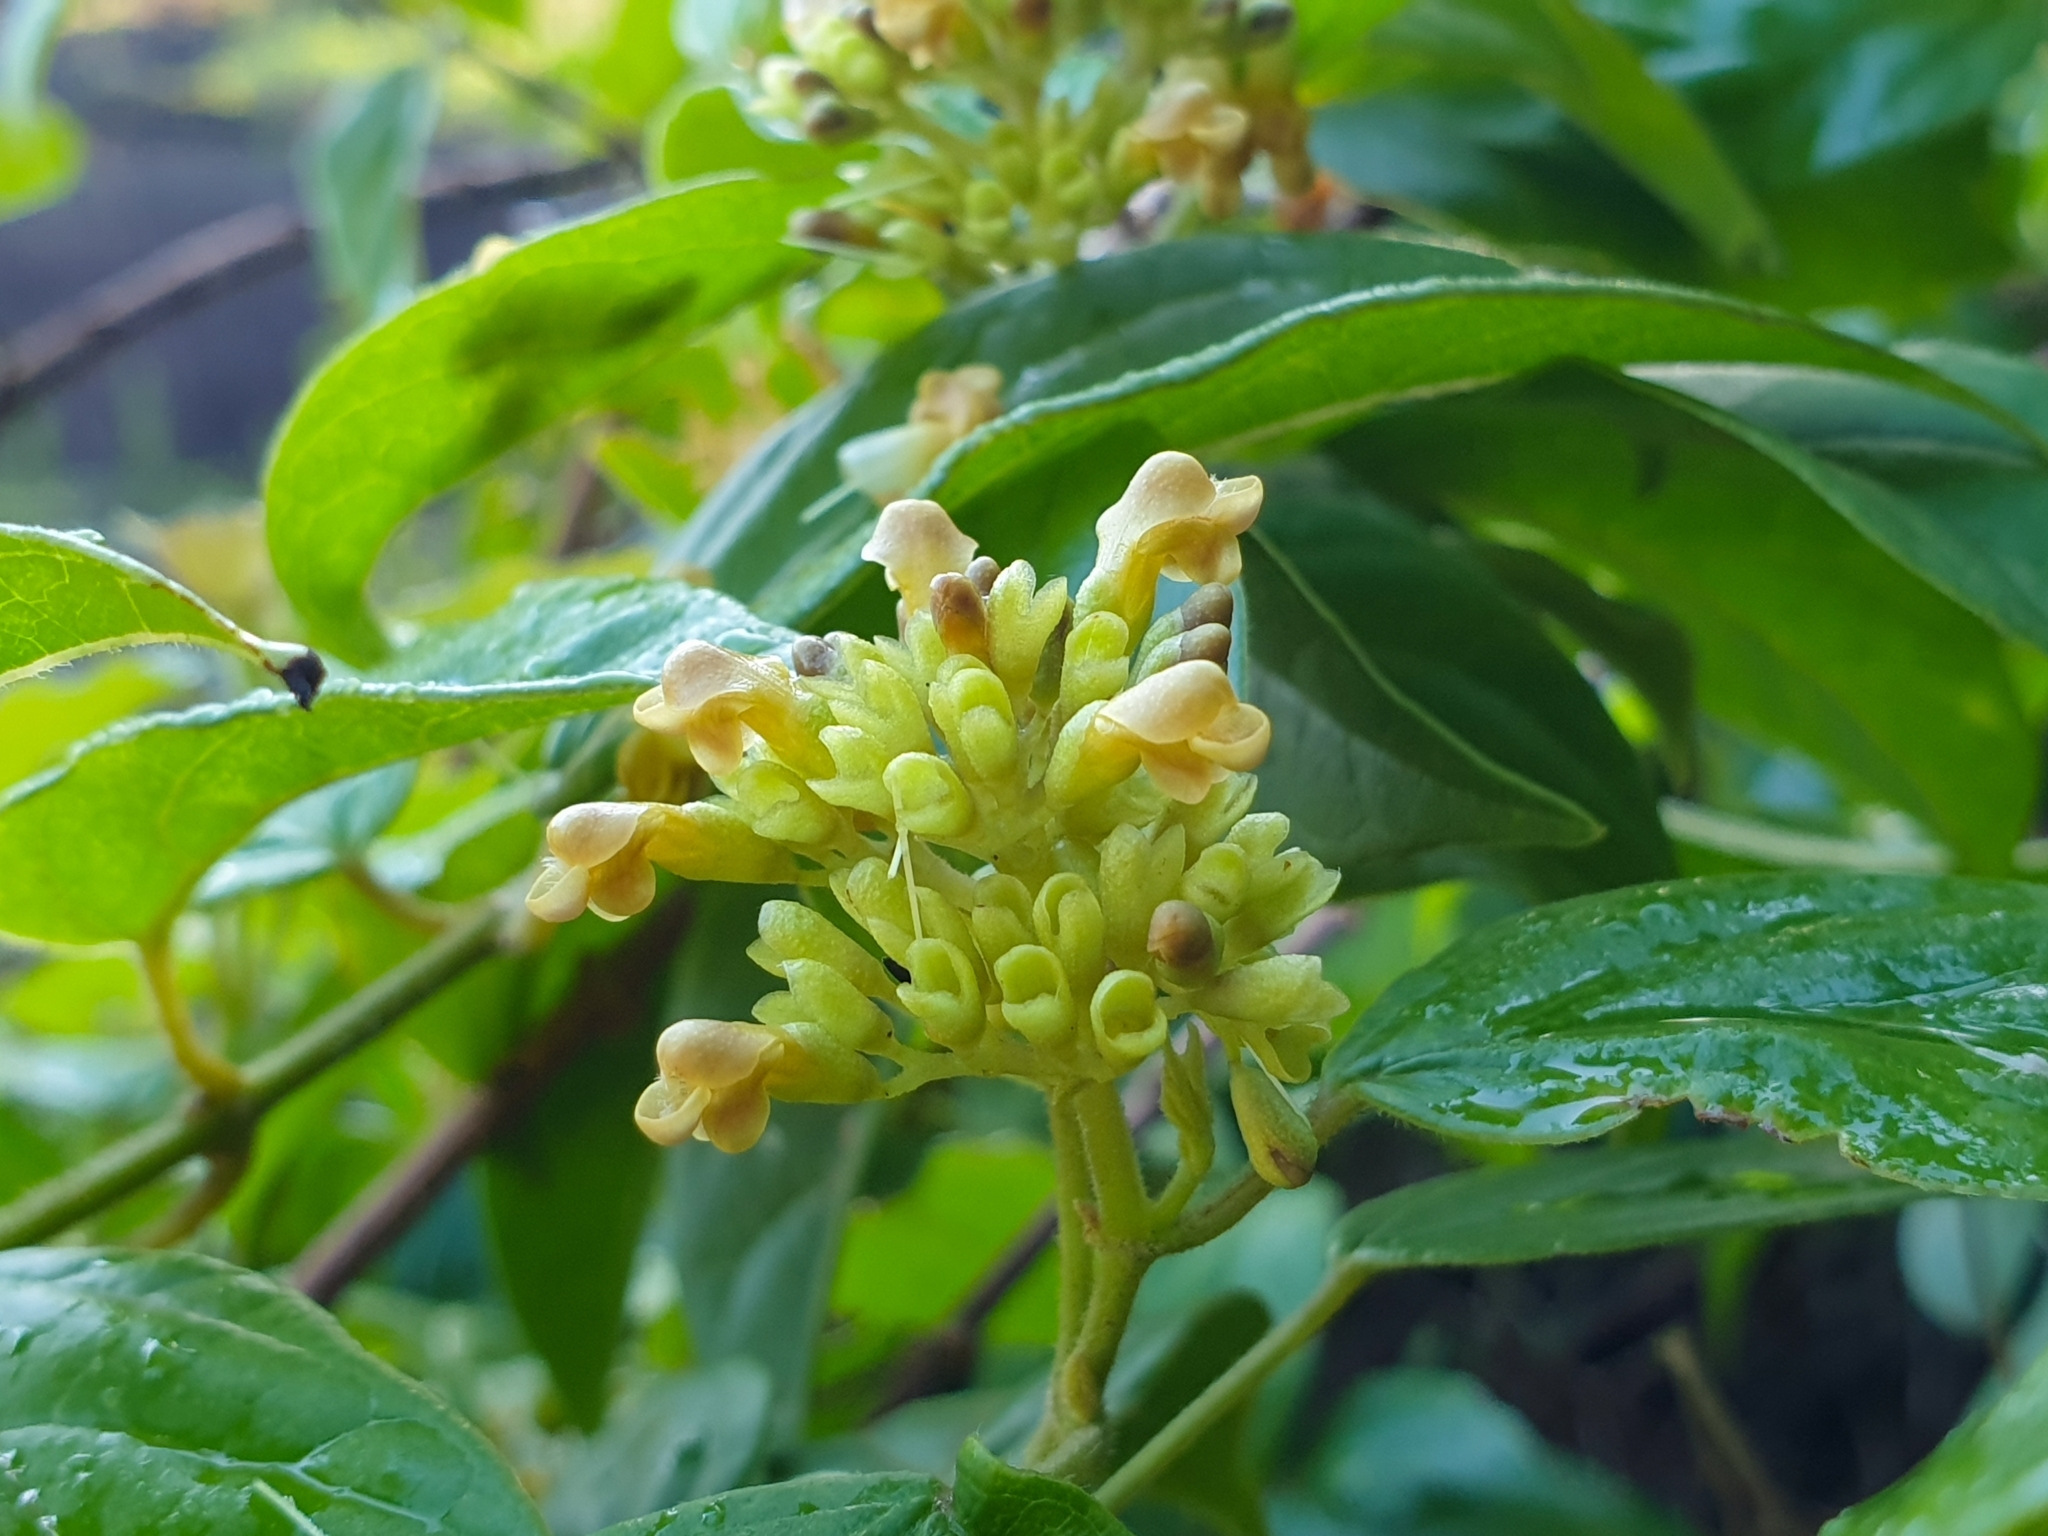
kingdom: Plantae
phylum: Tracheophyta
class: Magnoliopsida
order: Lamiales
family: Lamiaceae
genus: Premna
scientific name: Premna corymbosa
